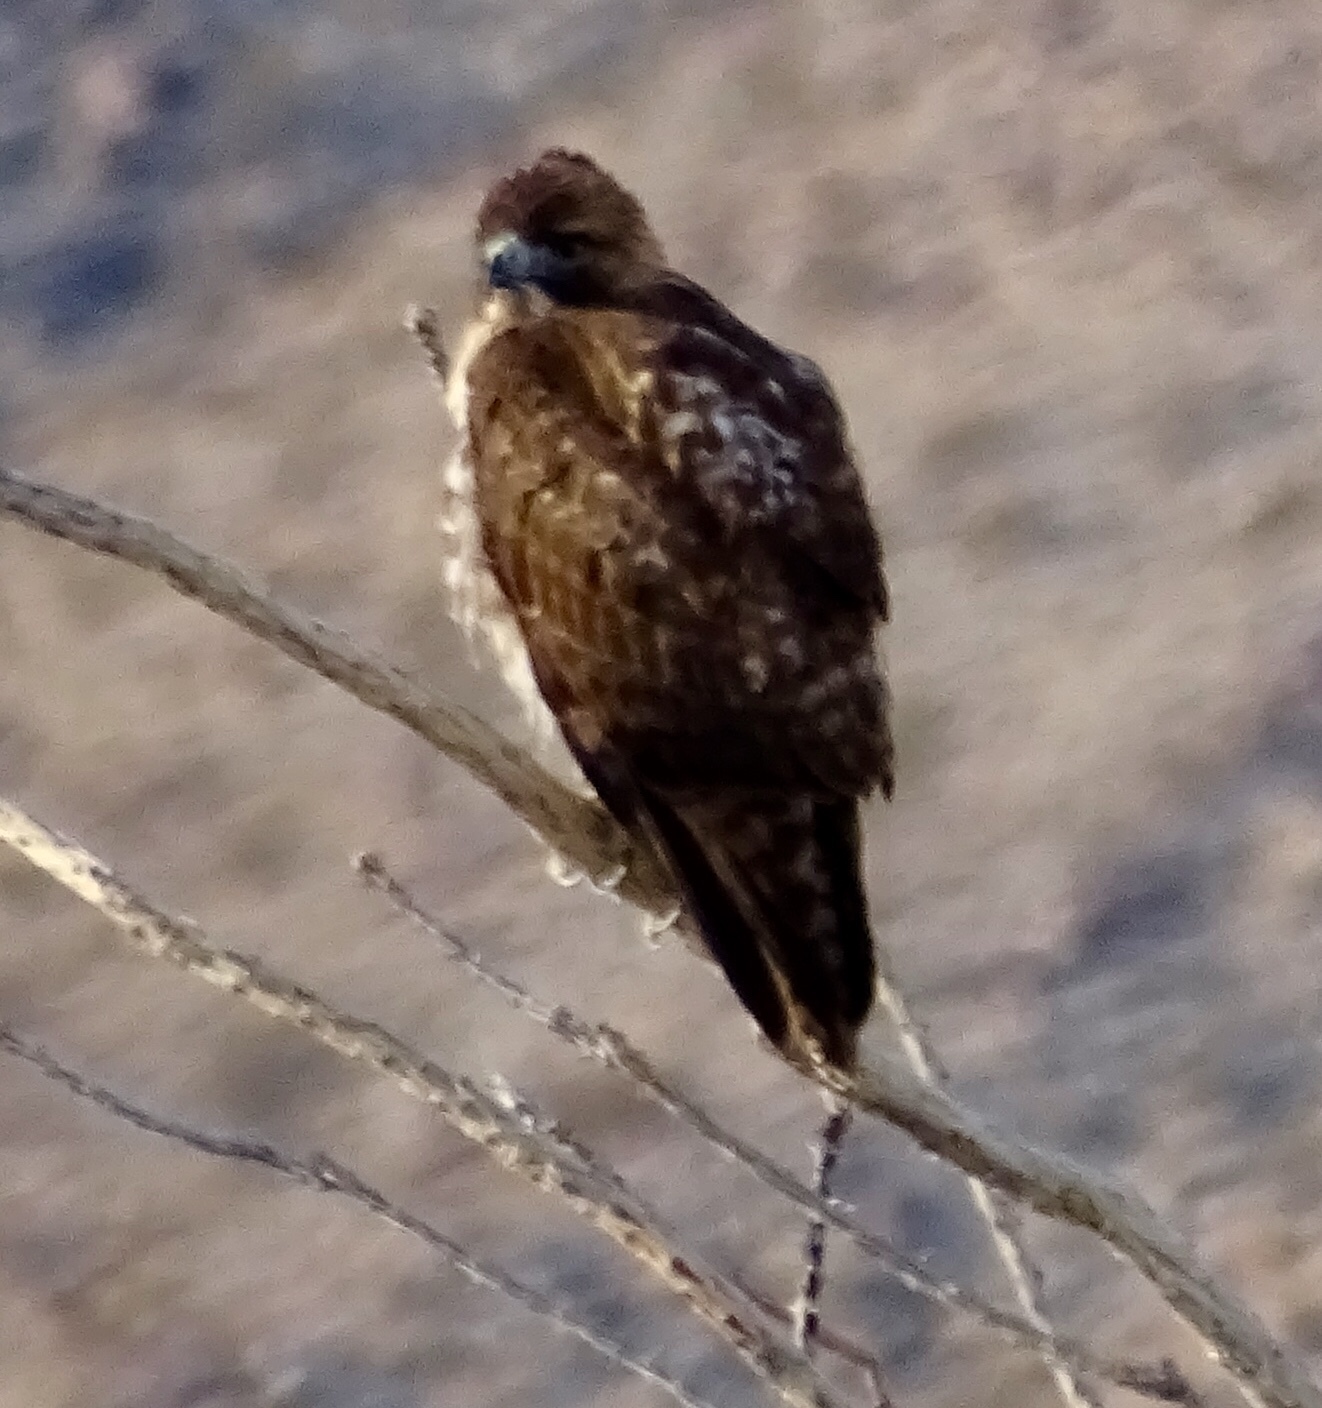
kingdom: Animalia
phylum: Chordata
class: Aves
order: Accipitriformes
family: Accipitridae
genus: Buteo
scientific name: Buteo jamaicensis
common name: Red-tailed hawk
